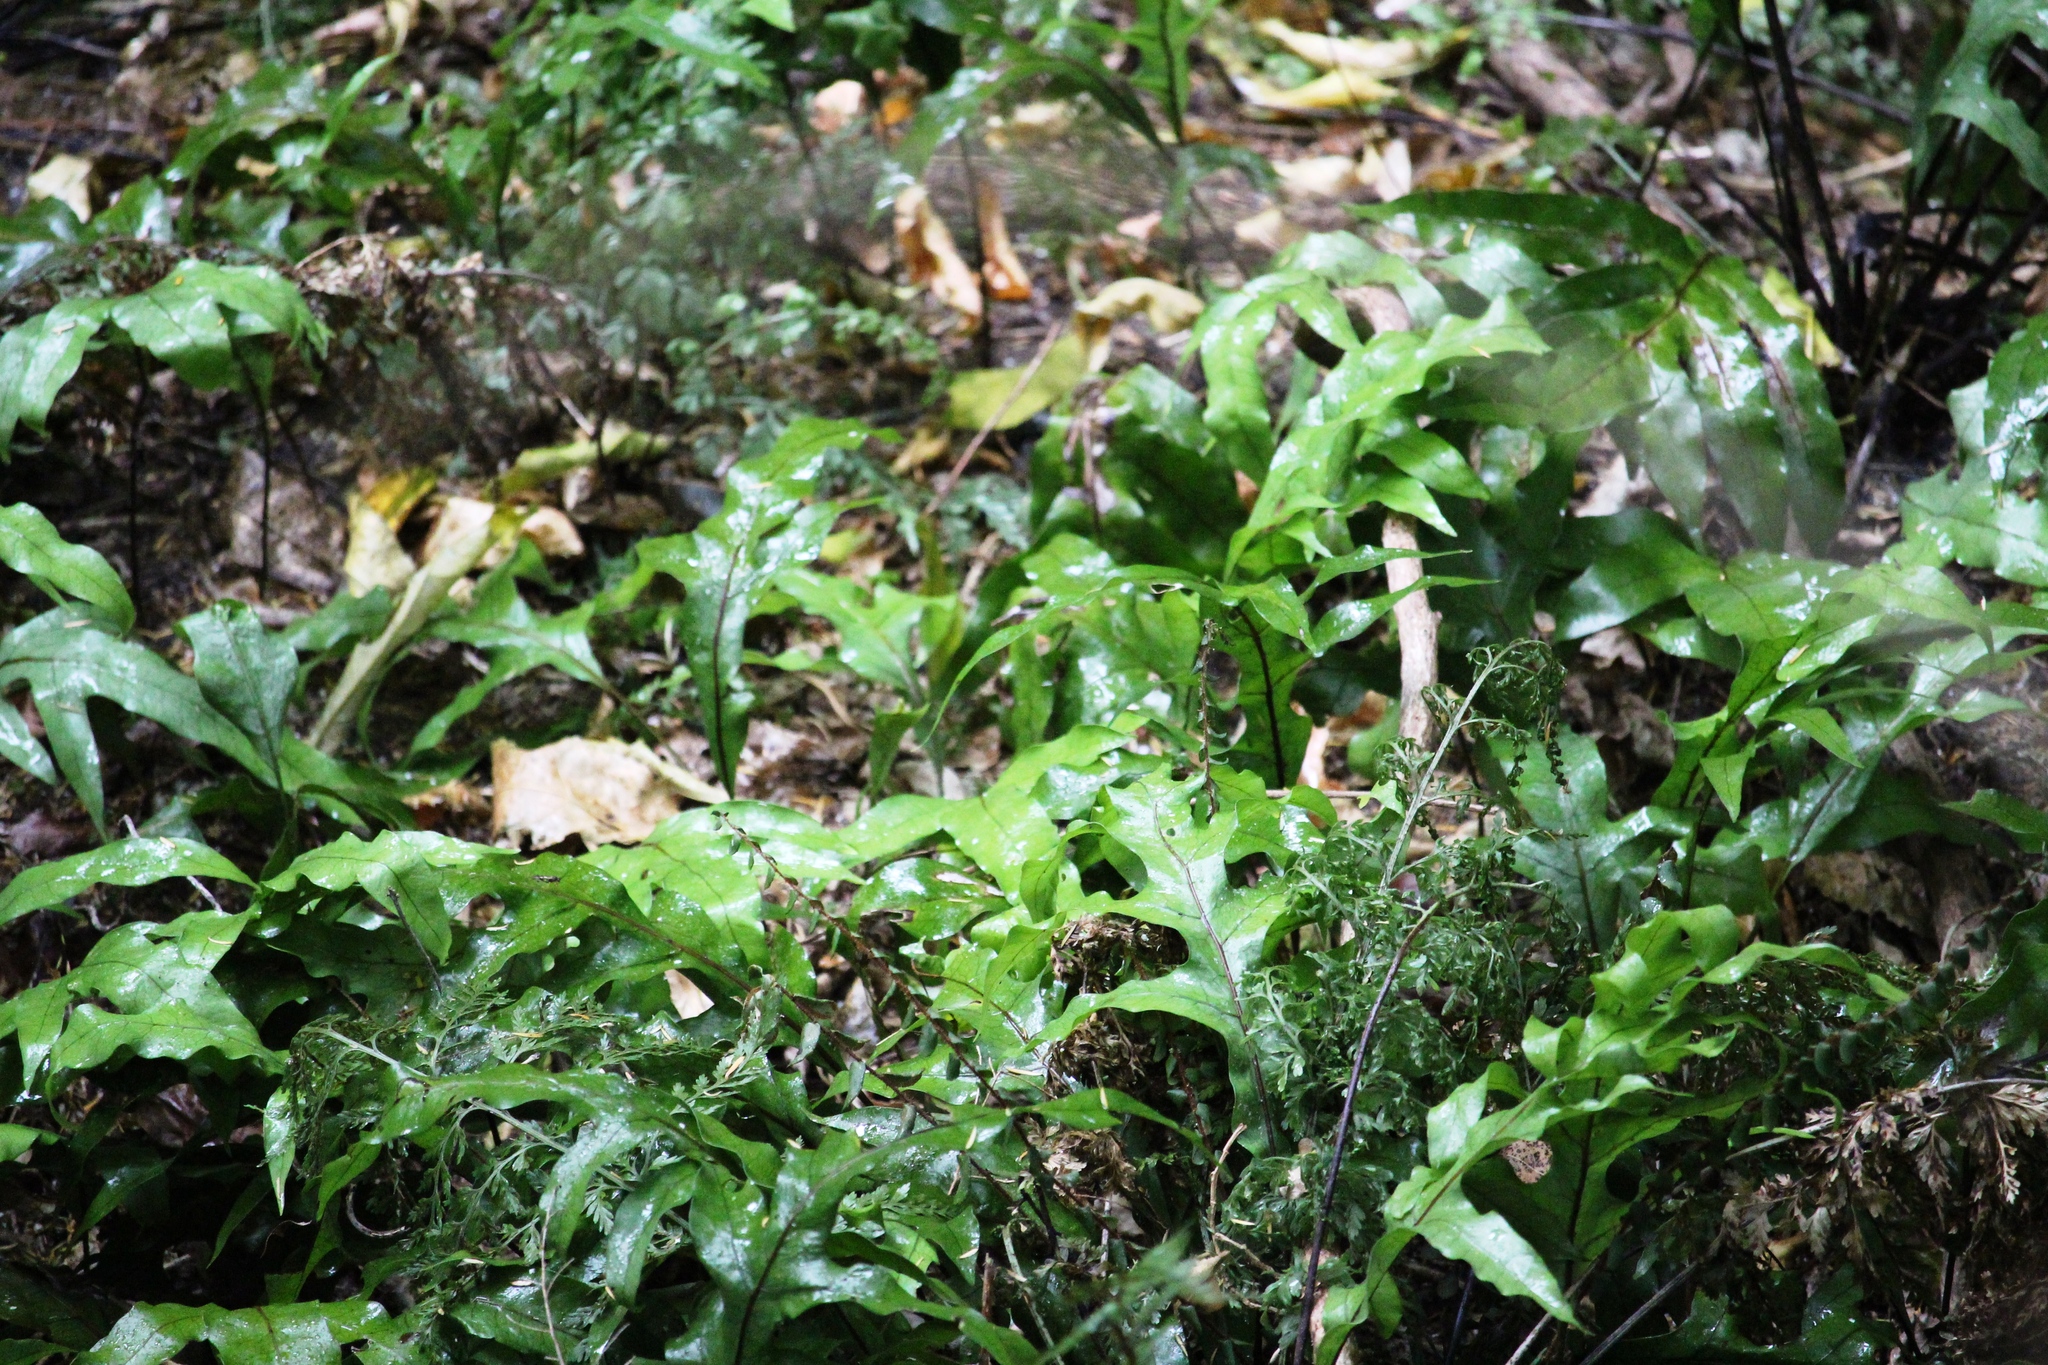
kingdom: Plantae
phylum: Tracheophyta
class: Polypodiopsida
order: Polypodiales
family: Polypodiaceae
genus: Lecanopteris
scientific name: Lecanopteris pustulata
